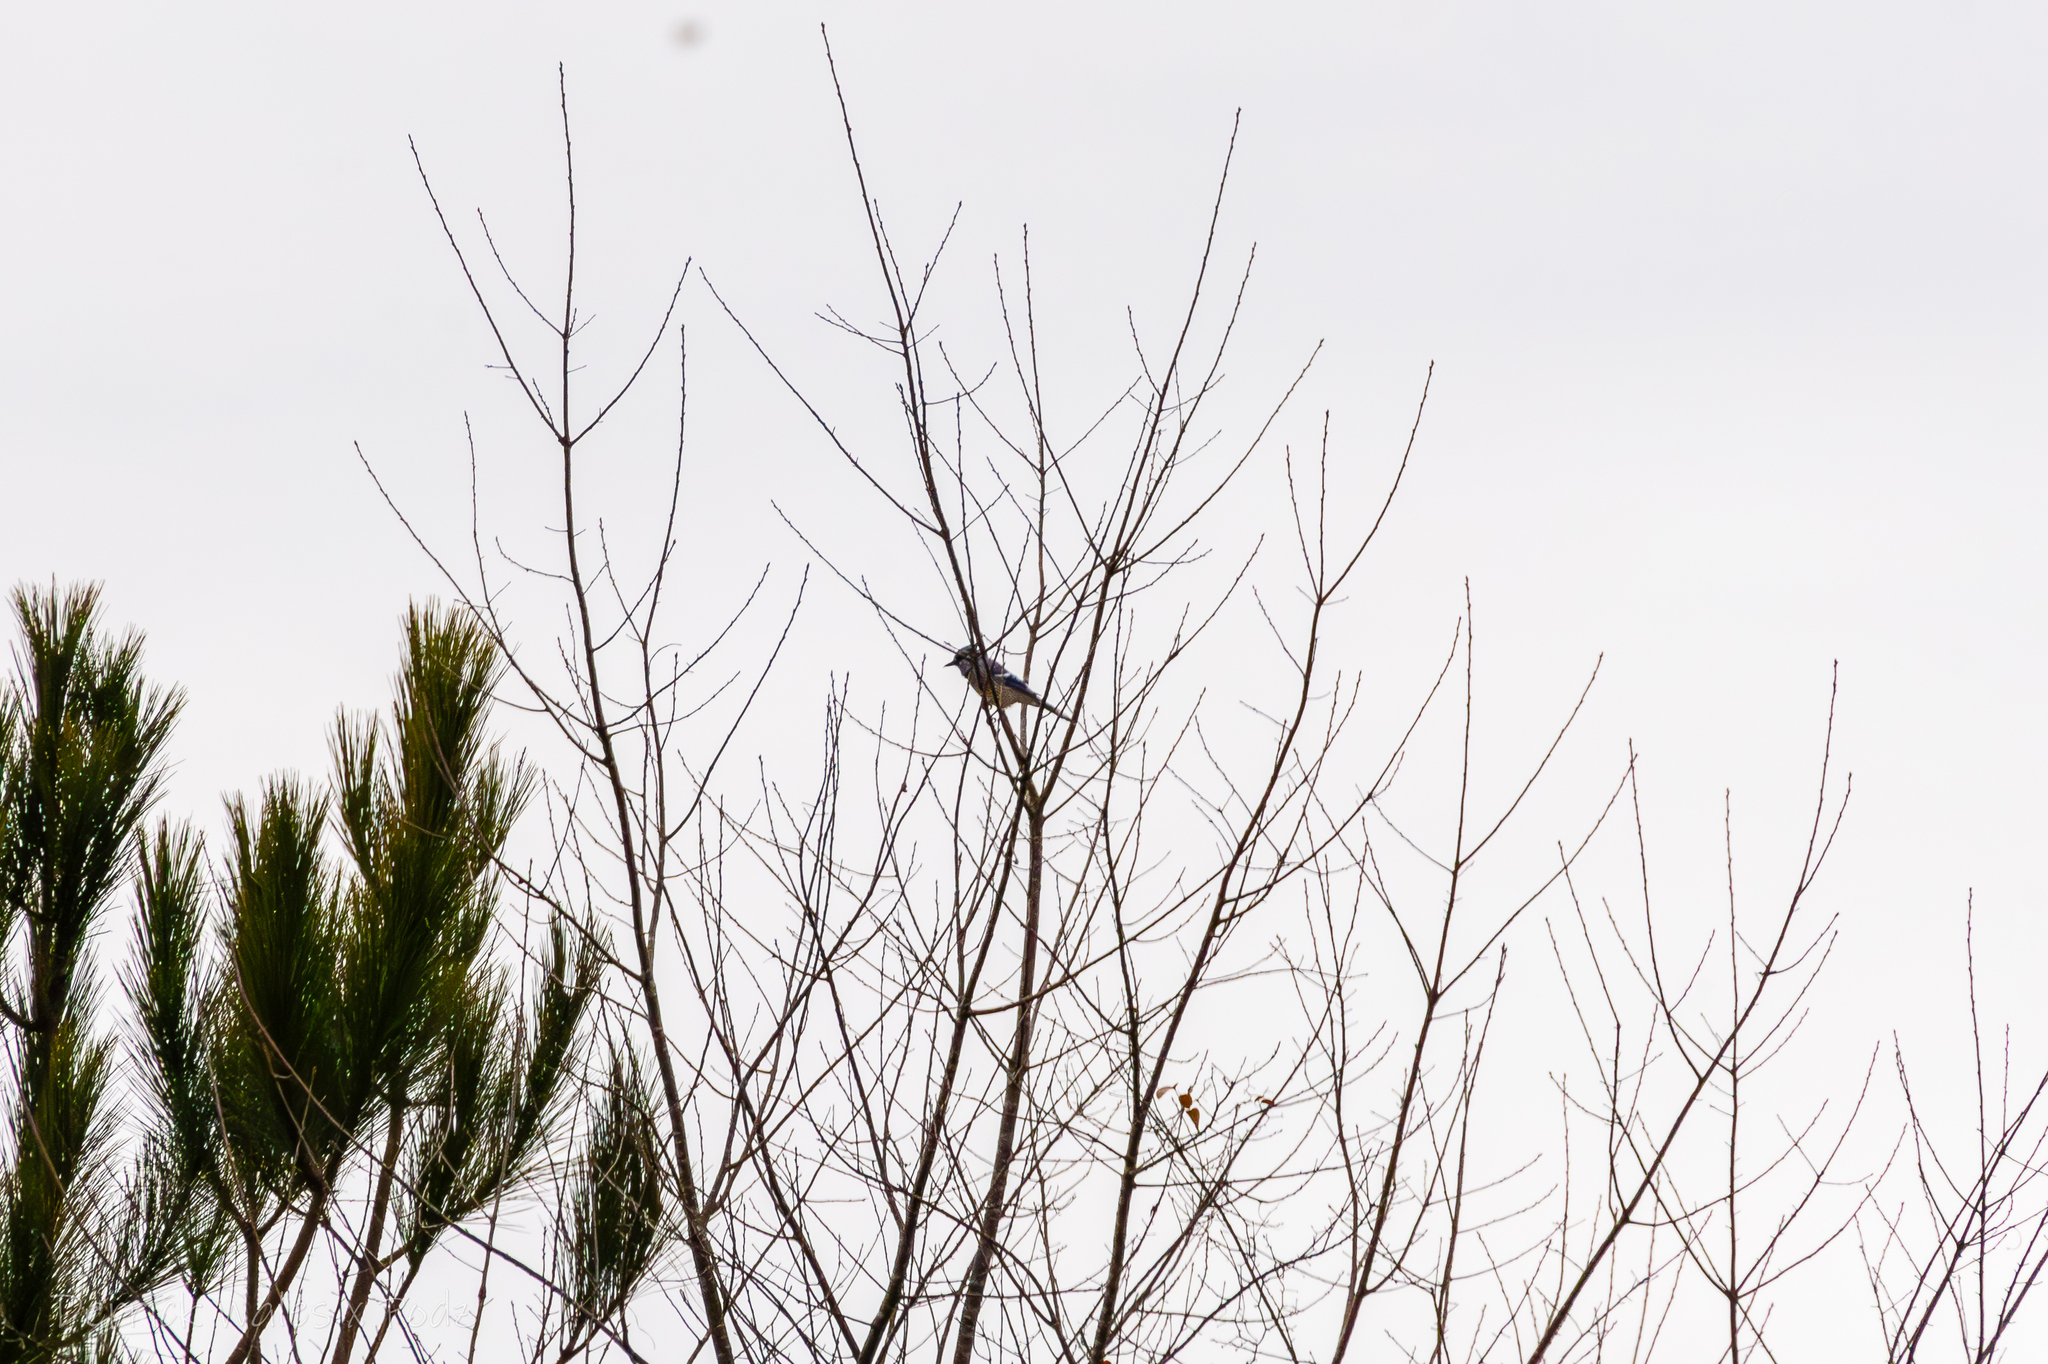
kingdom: Animalia
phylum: Chordata
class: Aves
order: Passeriformes
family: Corvidae
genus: Cyanocitta
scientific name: Cyanocitta cristata
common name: Blue jay
